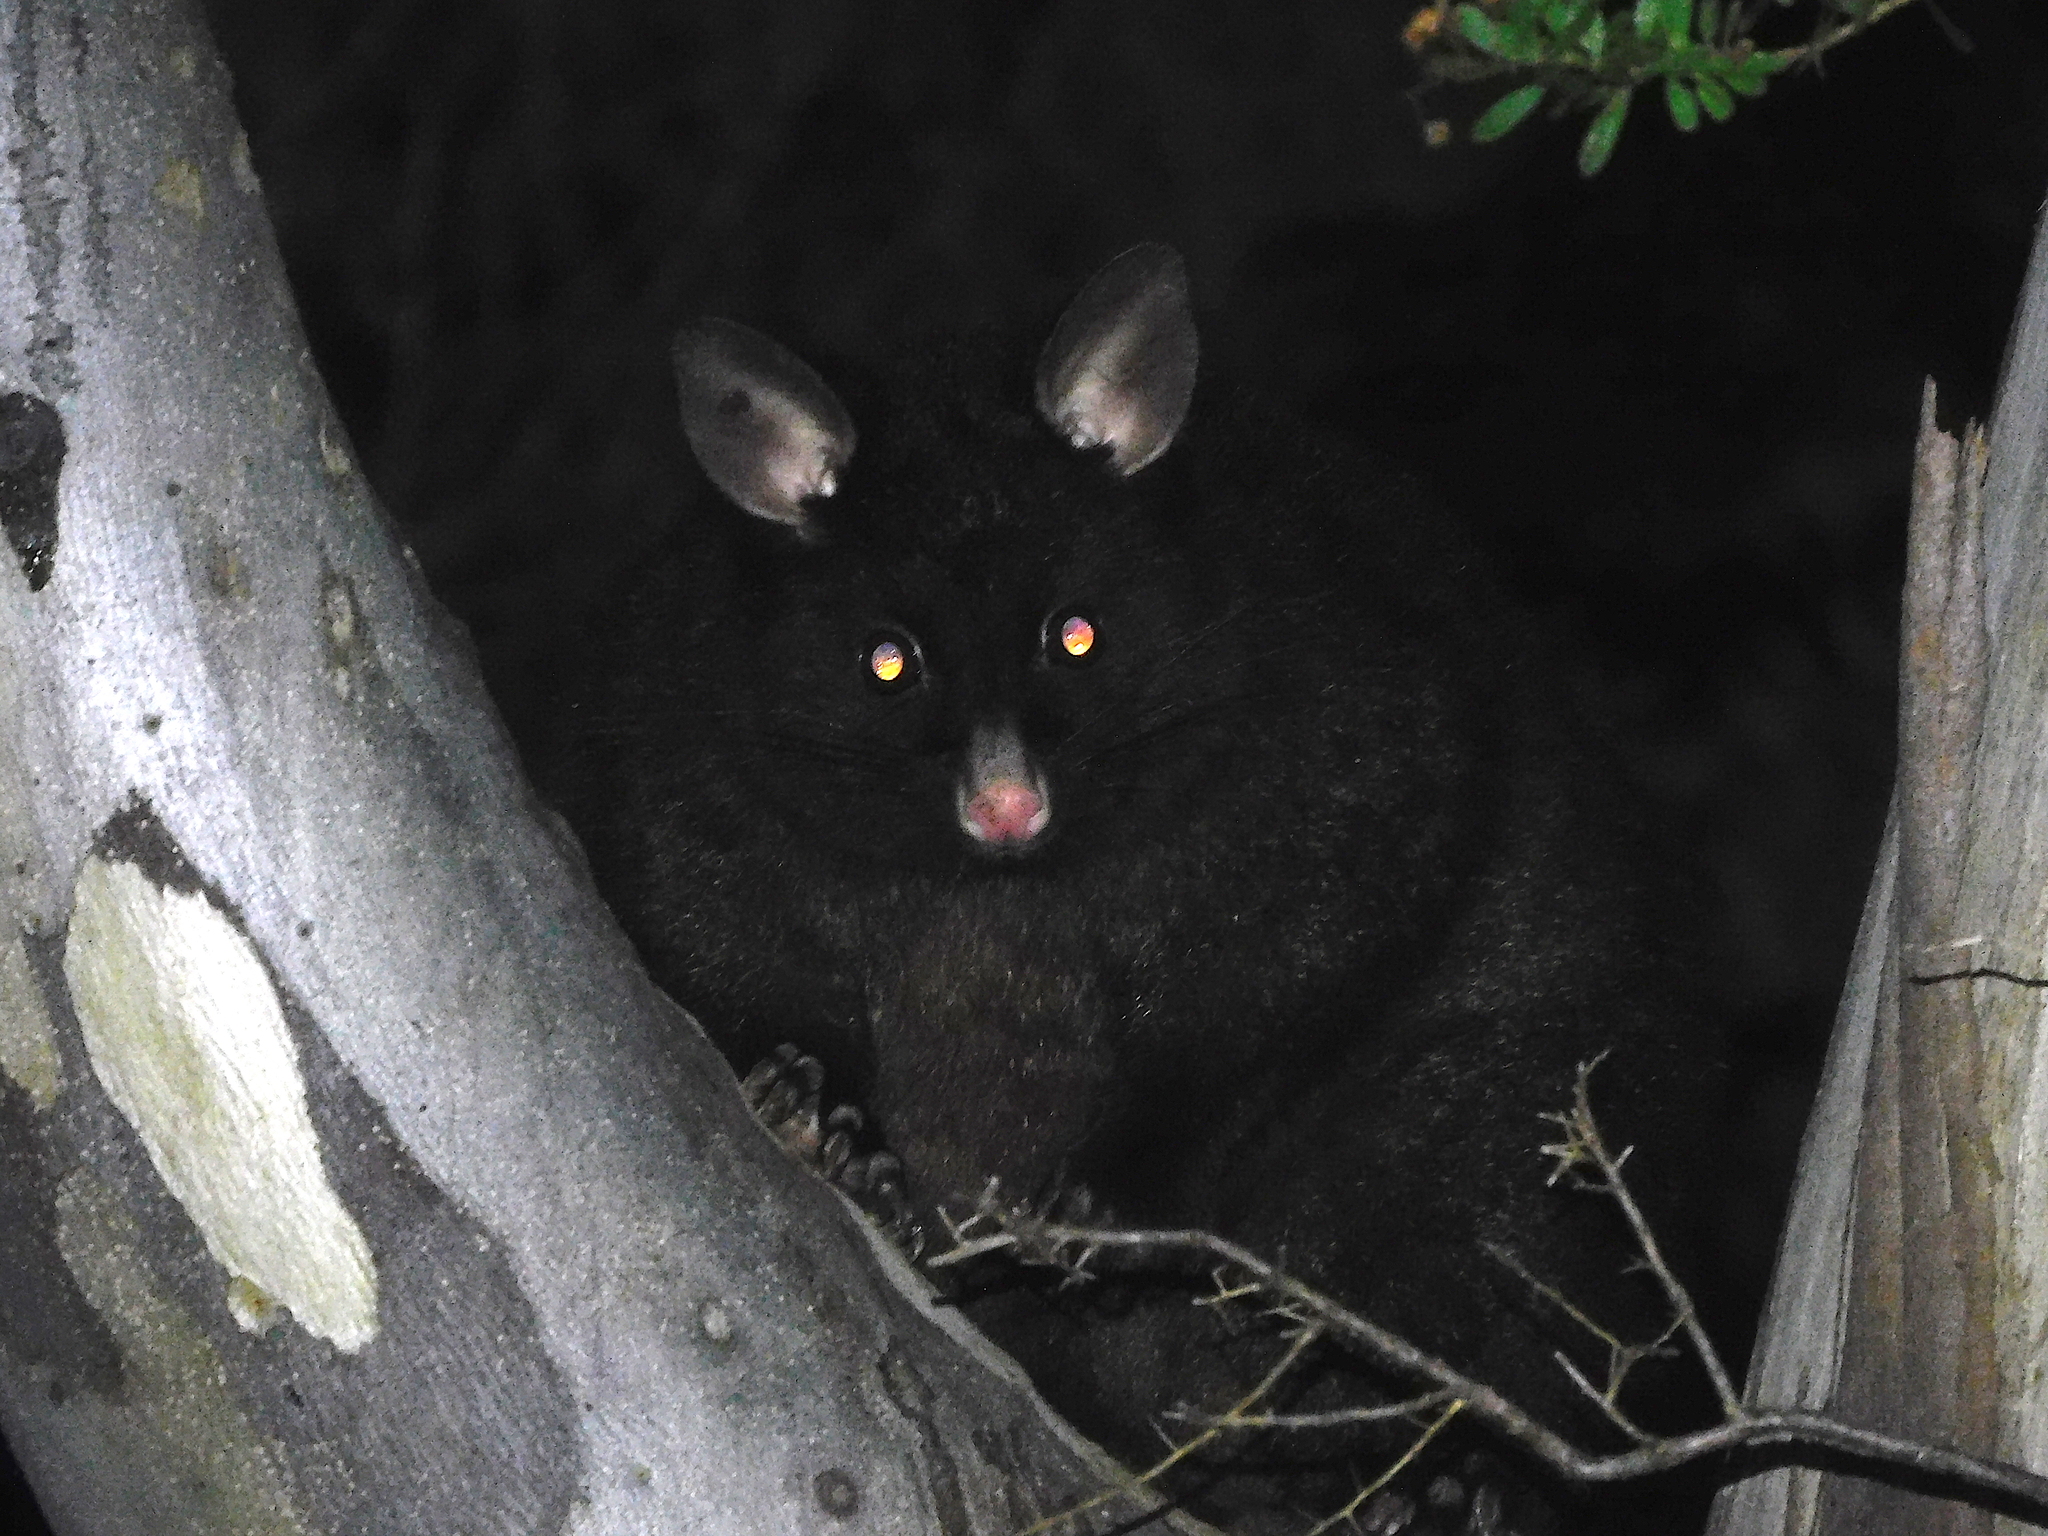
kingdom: Animalia
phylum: Chordata
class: Mammalia
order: Diprotodontia
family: Phalangeridae
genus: Trichosurus
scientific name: Trichosurus vulpecula
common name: Common brushtail
